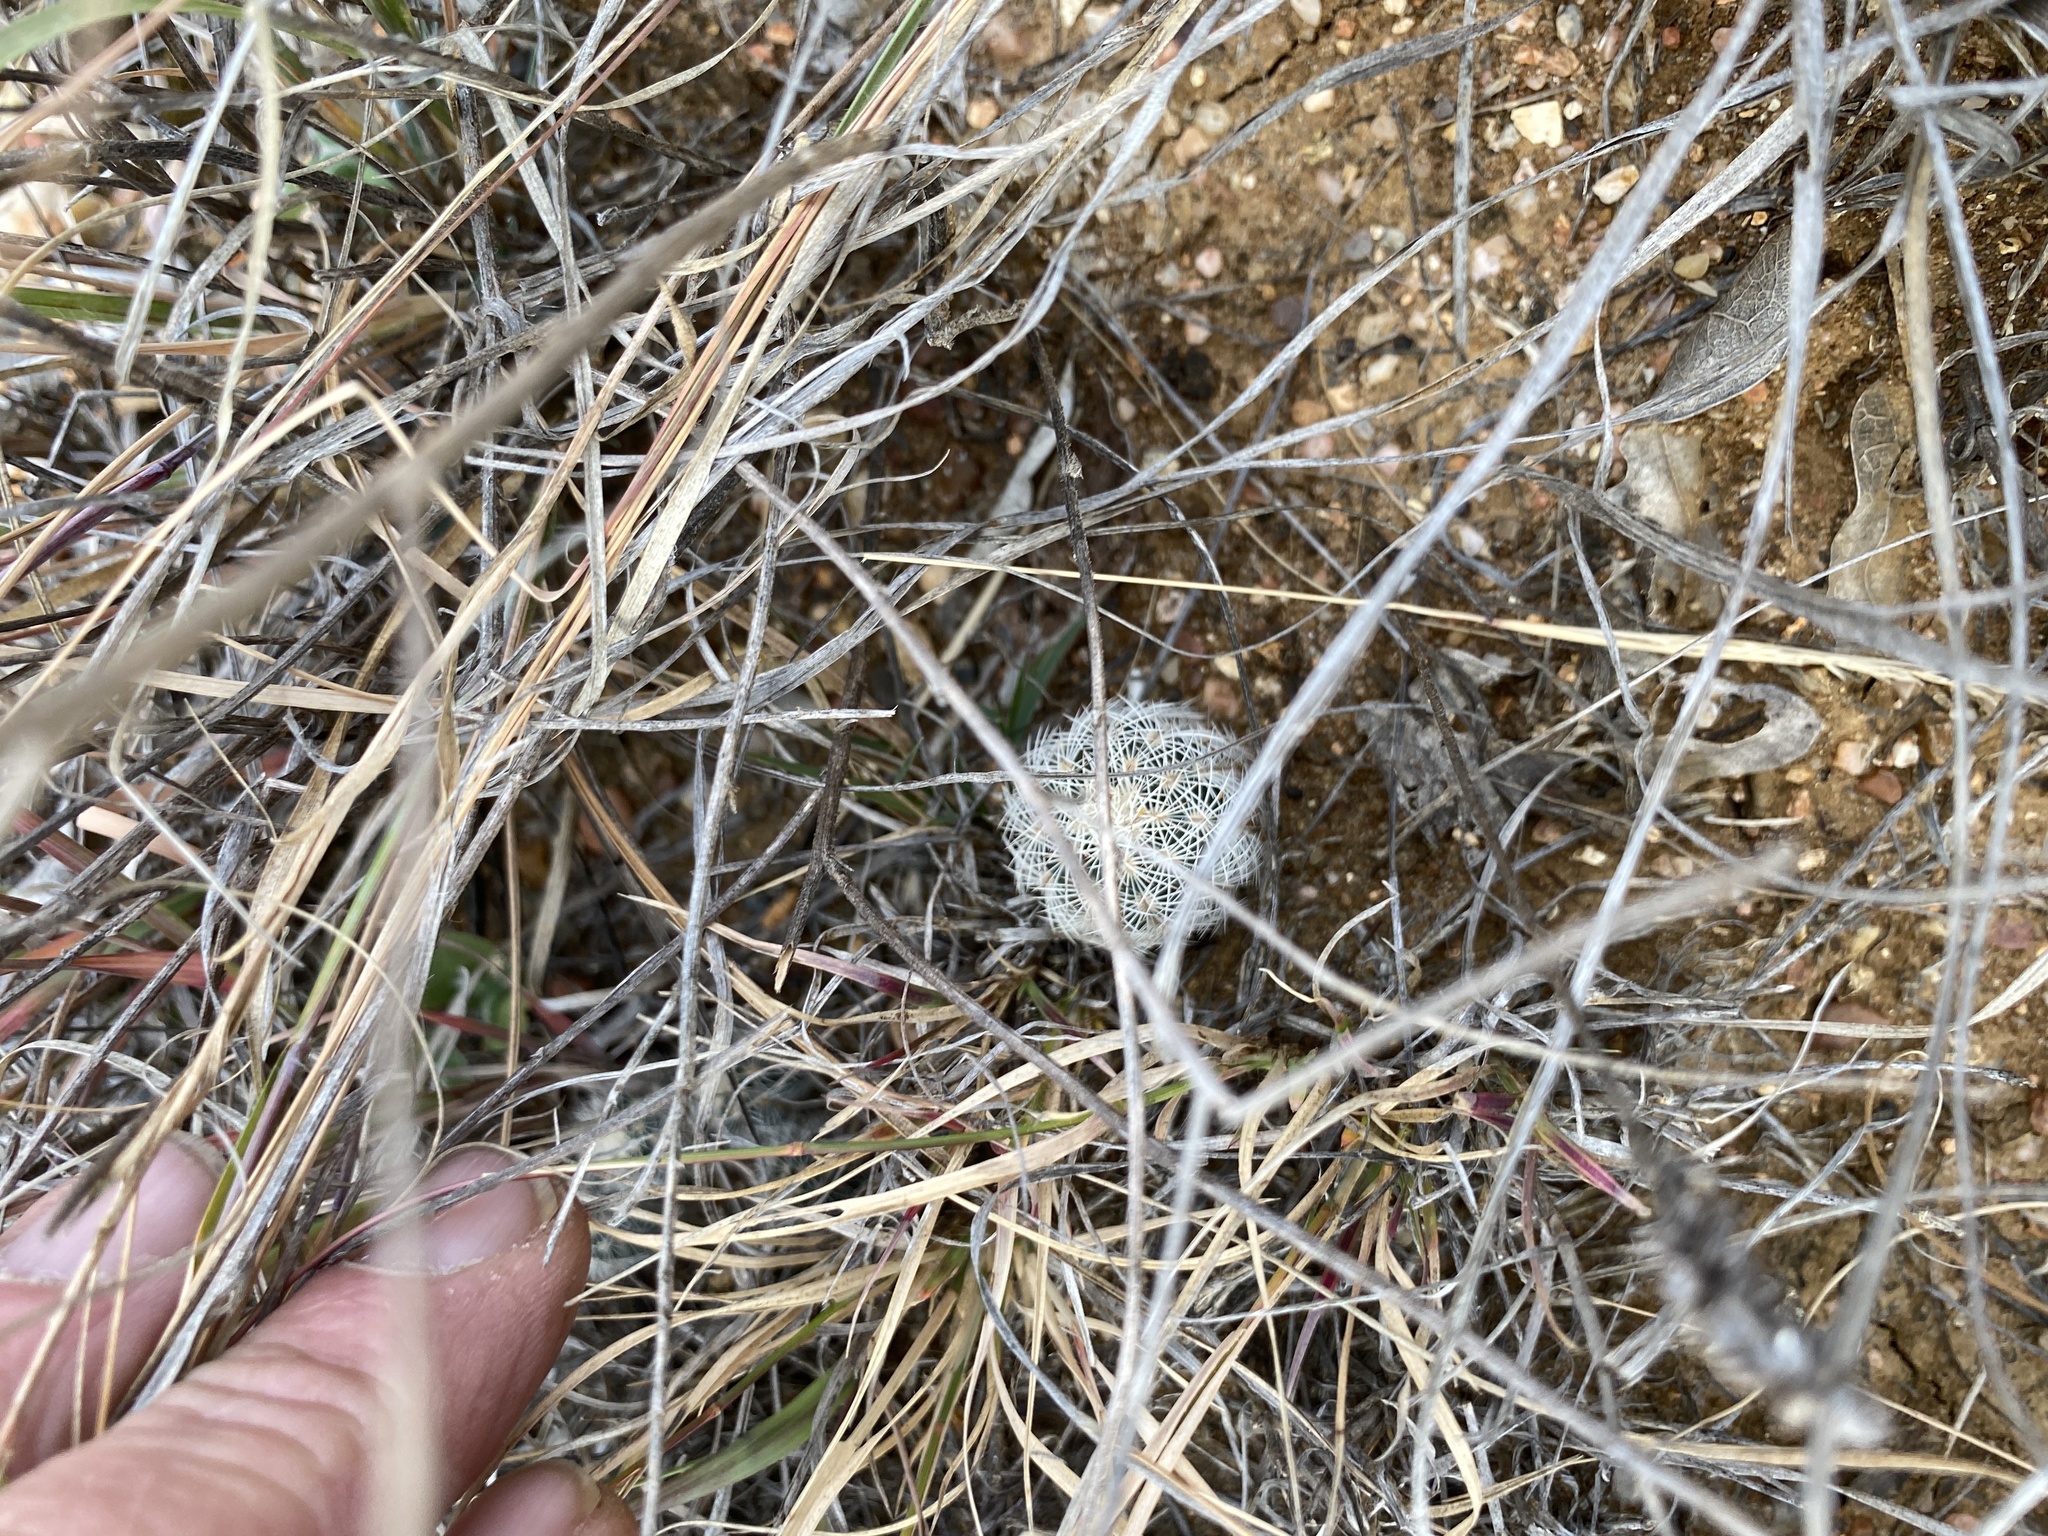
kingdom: Plantae
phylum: Tracheophyta
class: Magnoliopsida
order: Caryophyllales
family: Cactaceae
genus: Echinocereus
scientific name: Echinocereus reichenbachii
